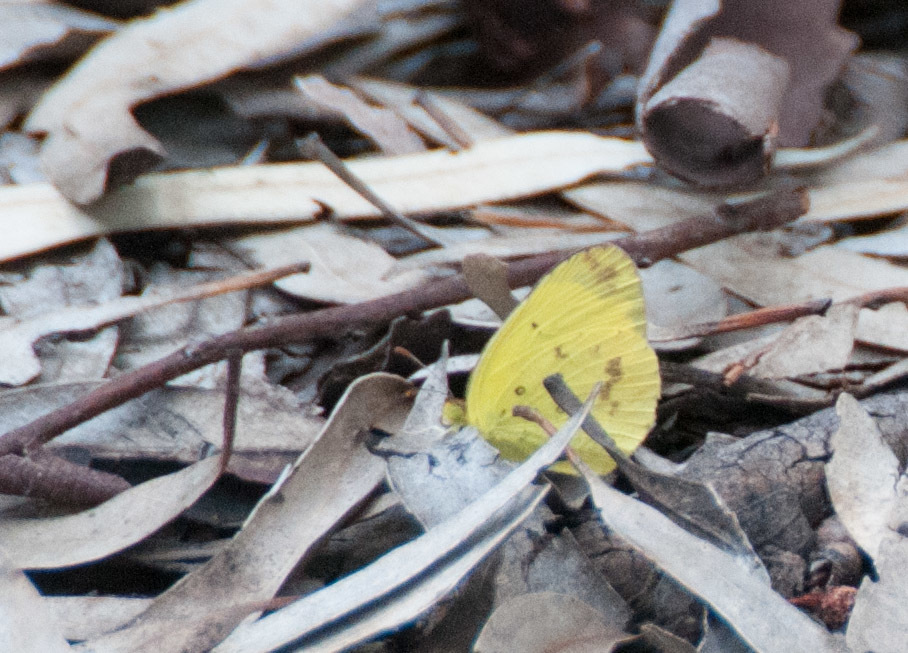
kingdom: Animalia
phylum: Arthropoda
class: Insecta
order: Lepidoptera
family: Pieridae
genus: Eurema
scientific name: Eurema smilax
